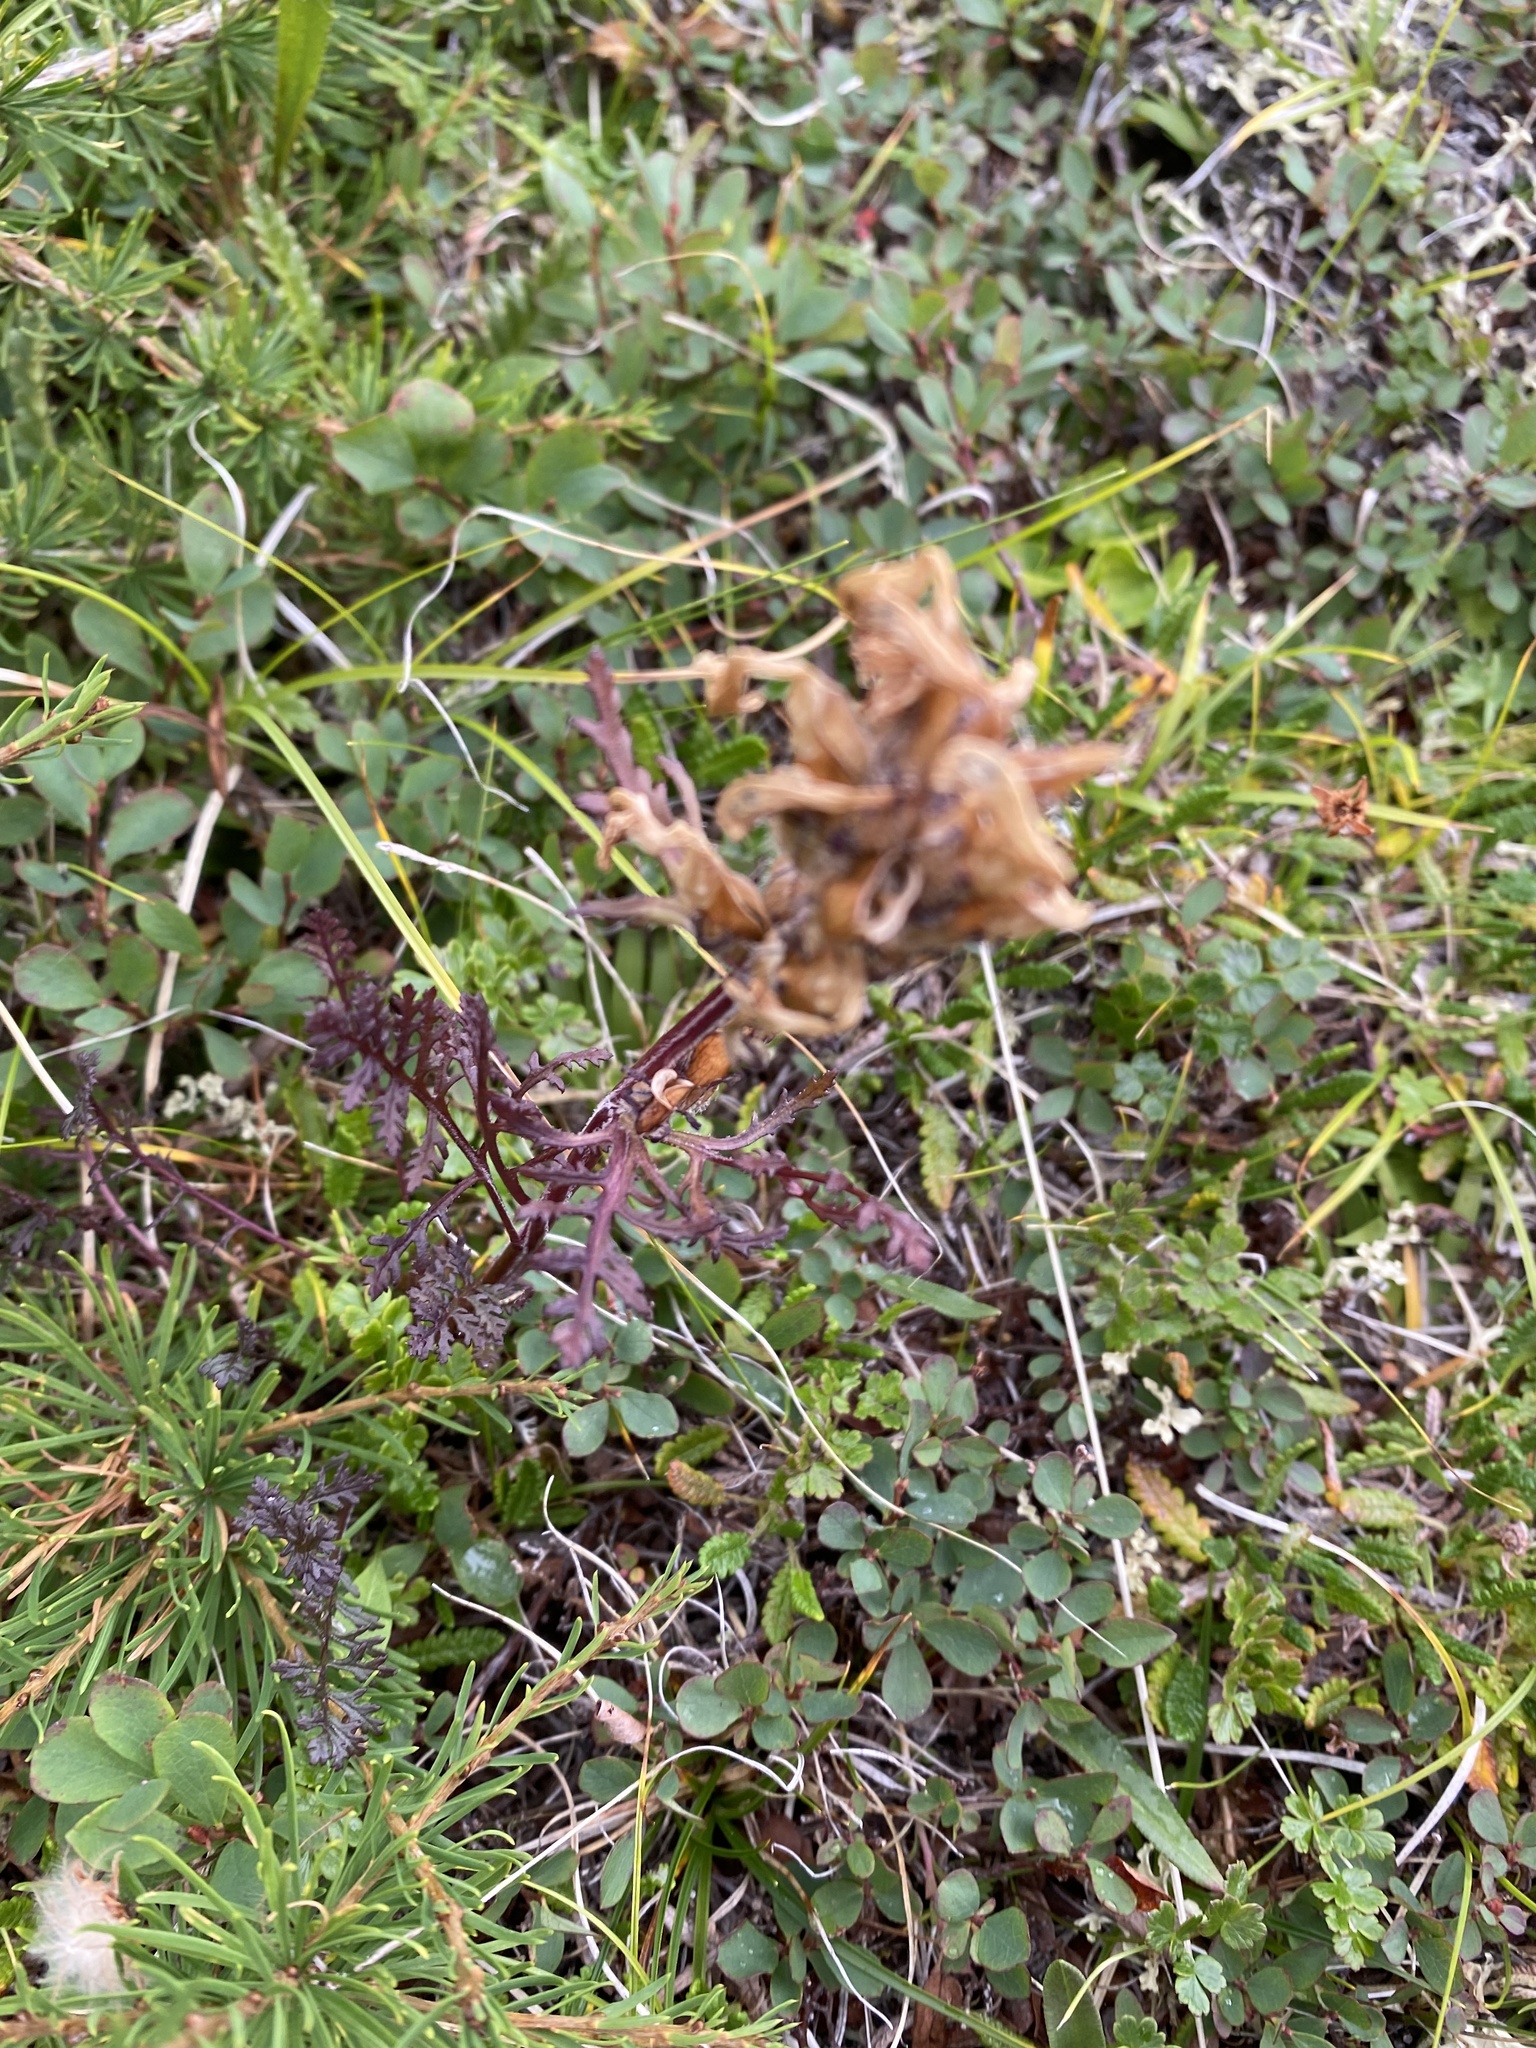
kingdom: Plantae
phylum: Tracheophyta
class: Magnoliopsida
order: Lamiales
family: Orobanchaceae
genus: Pedicularis
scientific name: Pedicularis amoena
